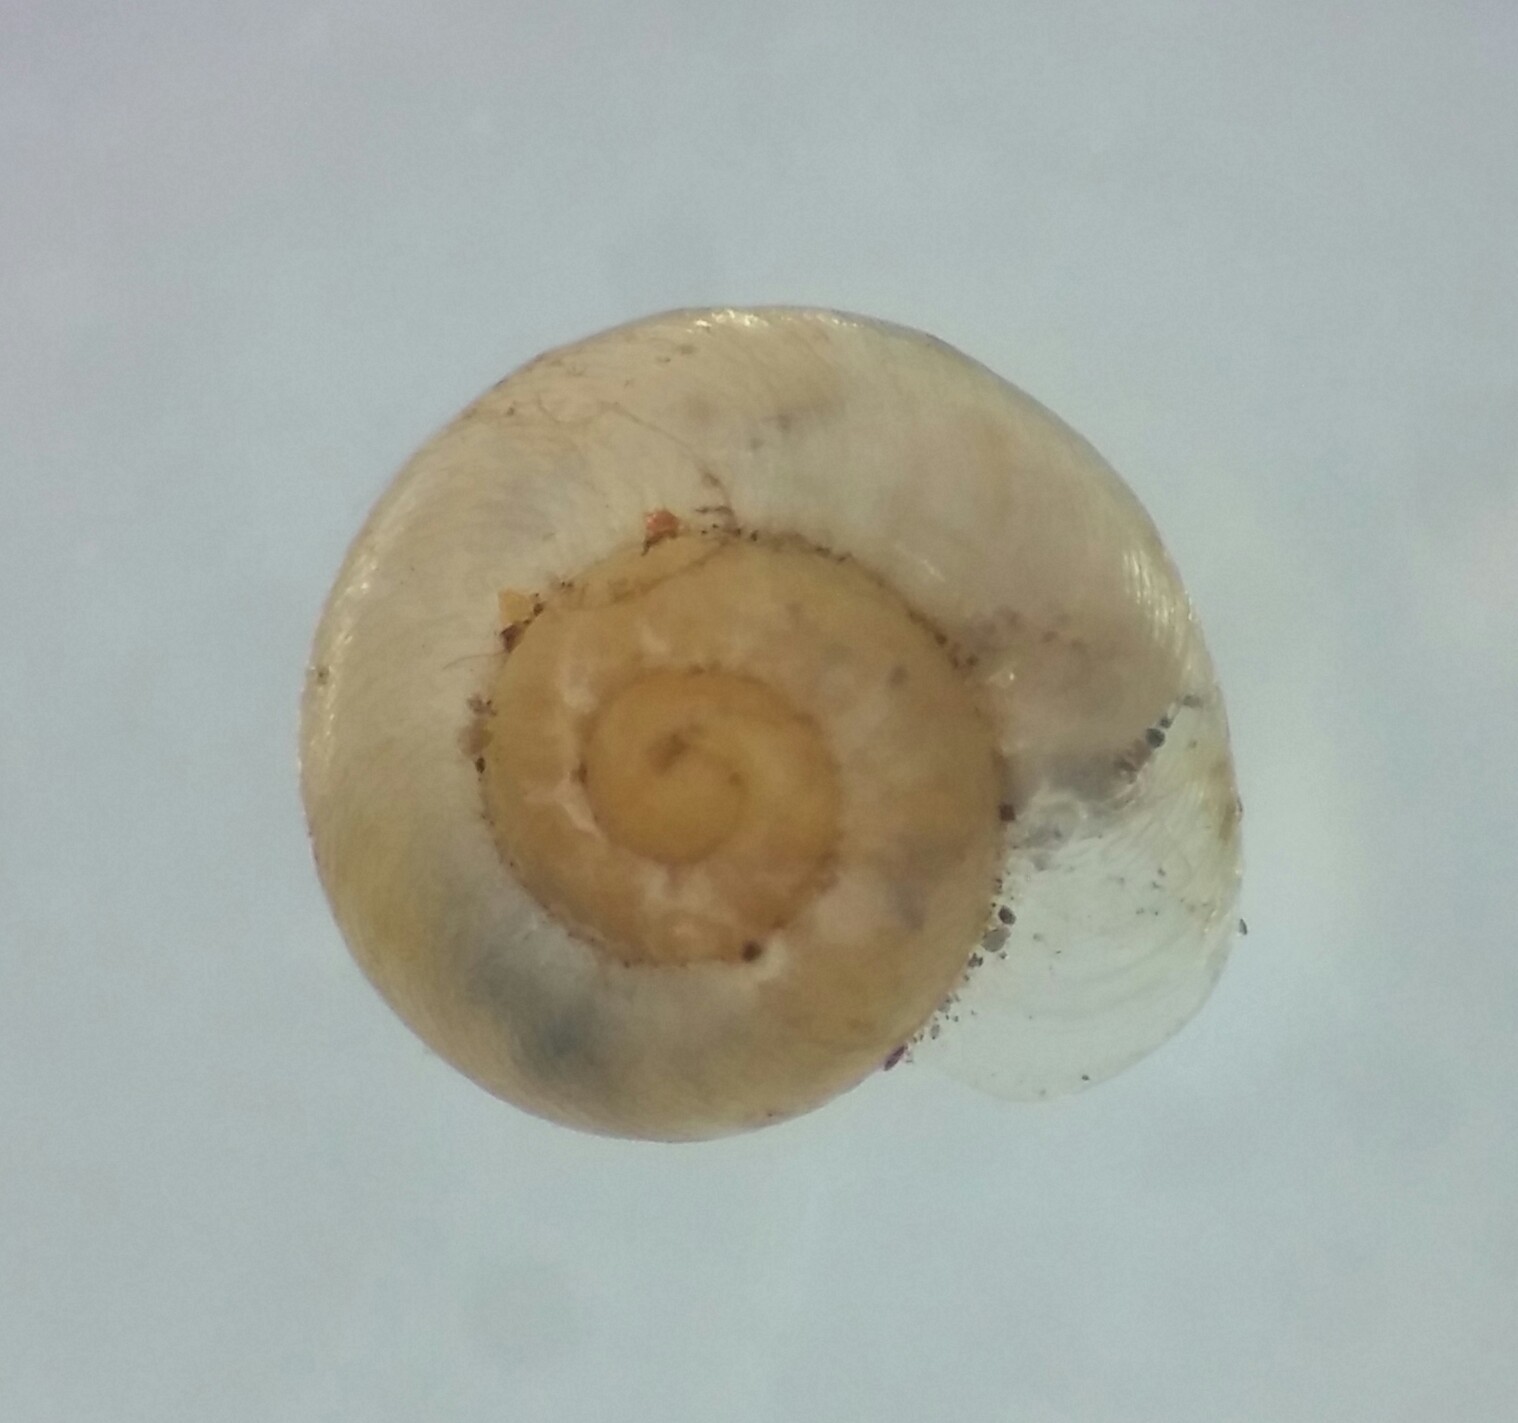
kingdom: Animalia
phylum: Mollusca
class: Gastropoda
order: Stylommatophora
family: Gastrodontidae
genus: Striatura
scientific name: Striatura pugetensis
